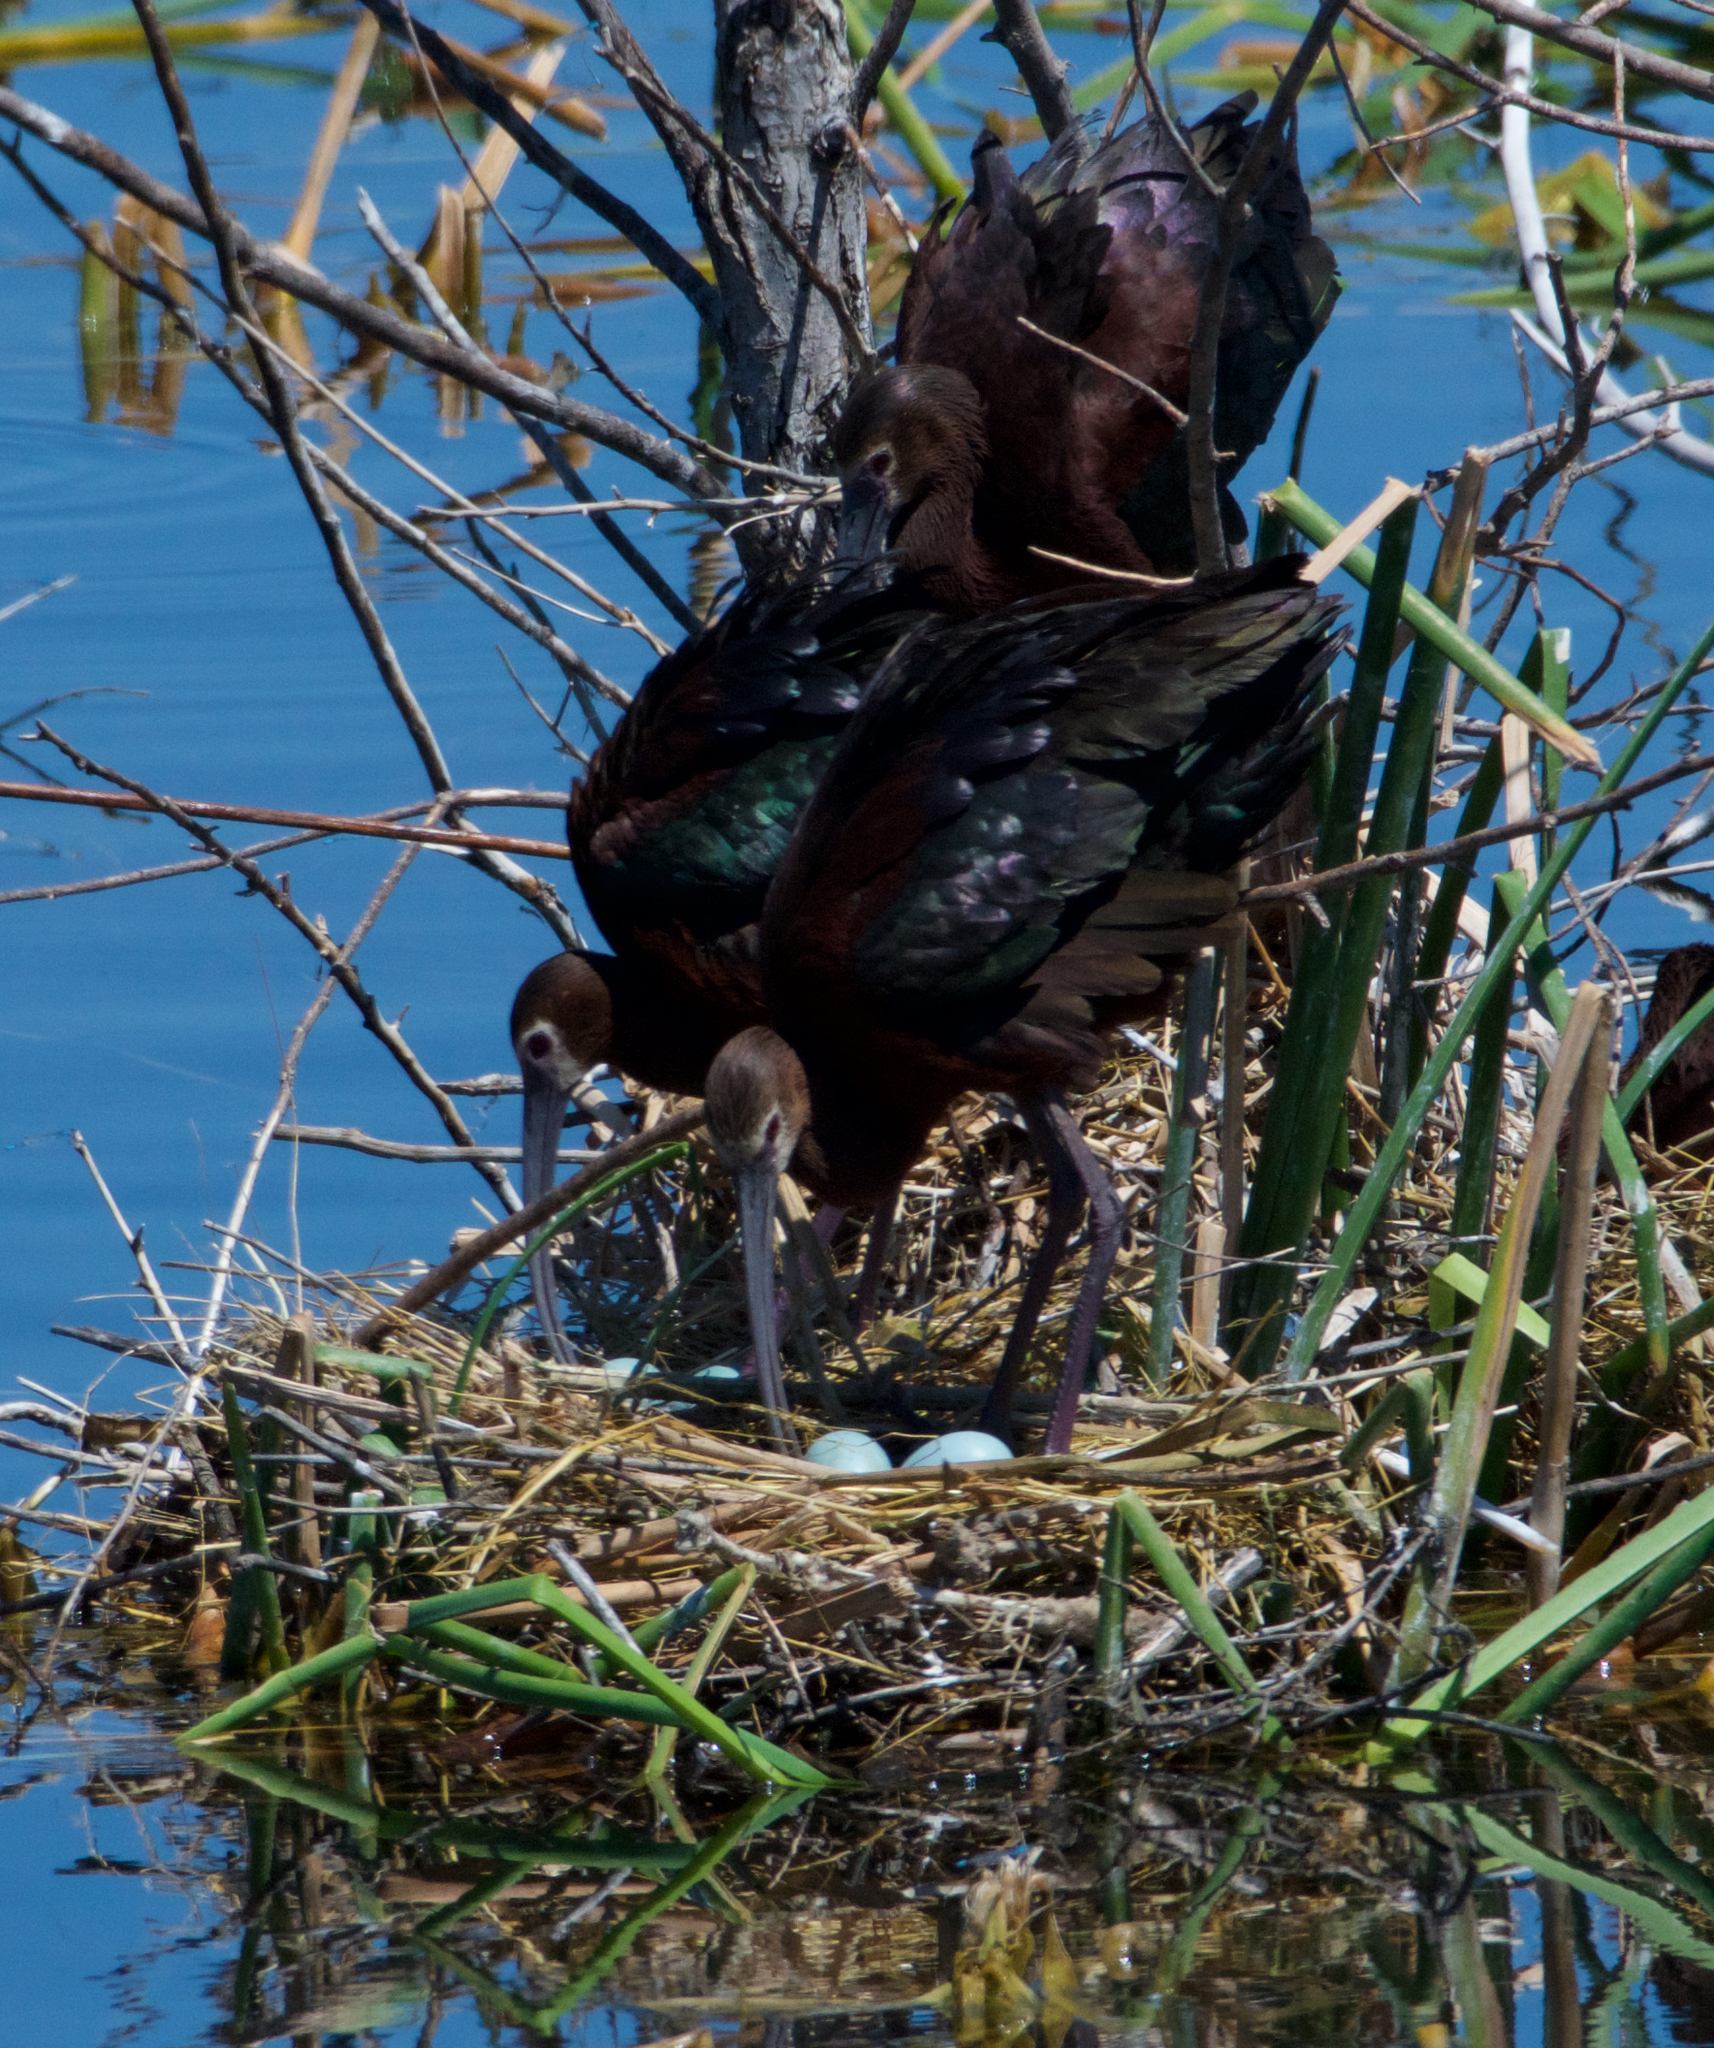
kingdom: Animalia
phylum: Chordata
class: Aves
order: Pelecaniformes
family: Threskiornithidae
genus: Plegadis
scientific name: Plegadis chihi
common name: White-faced ibis
